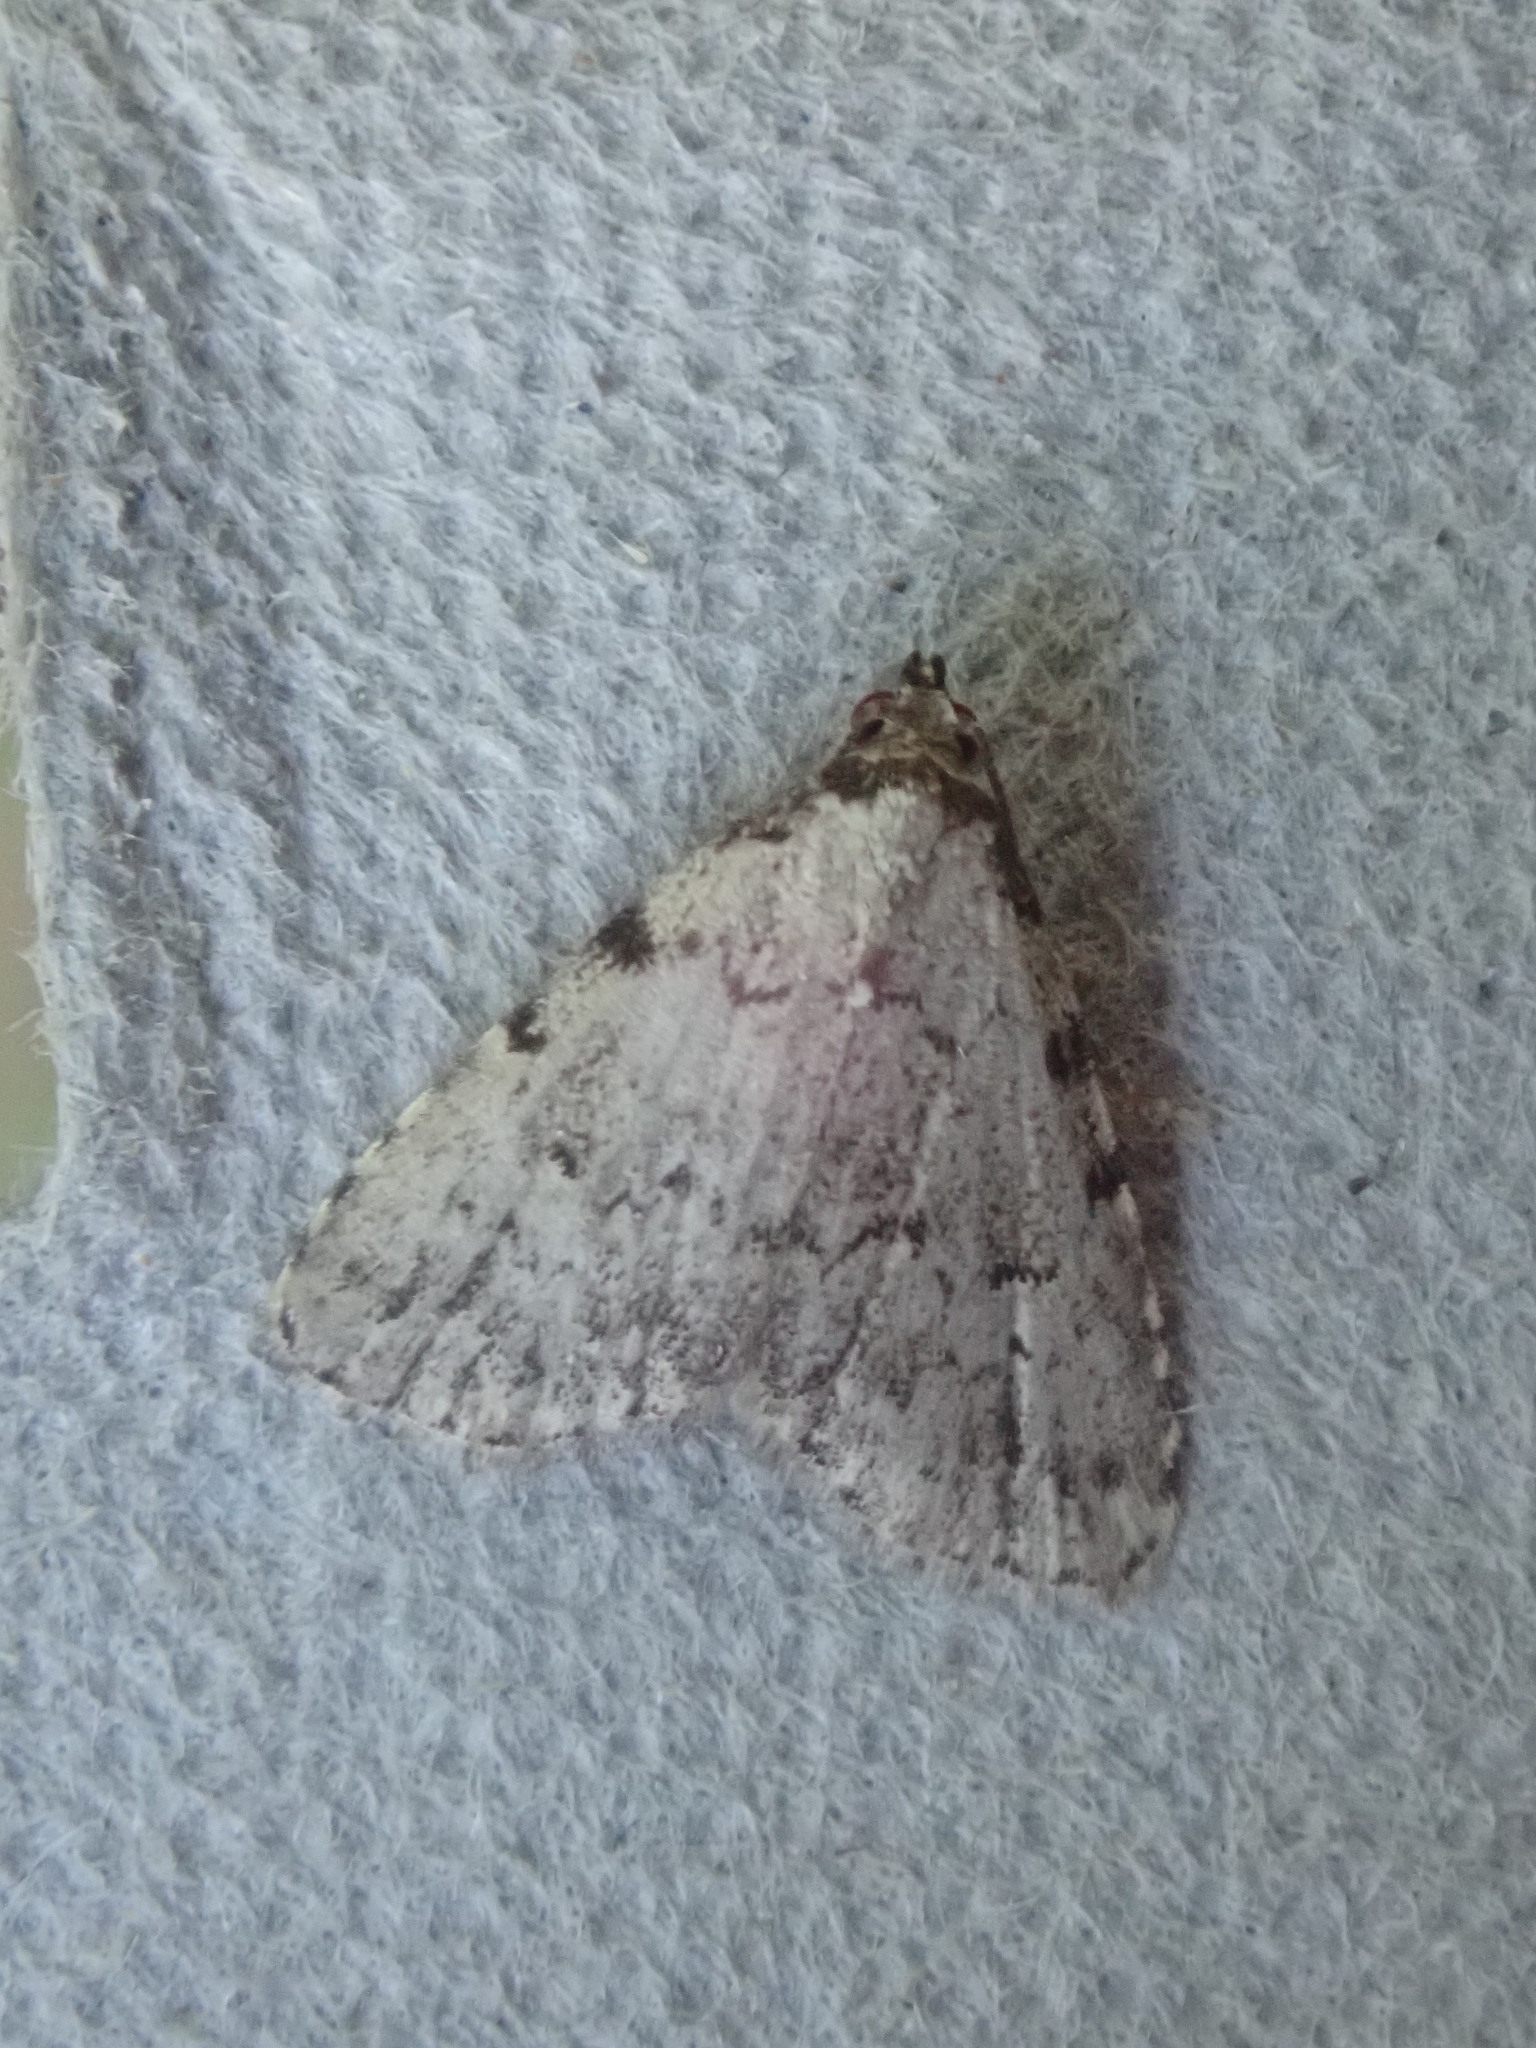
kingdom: Animalia
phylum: Arthropoda
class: Insecta
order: Lepidoptera
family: Erebidae
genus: Dyspyralis
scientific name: Dyspyralis puncticosta
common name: Spot-edged dyspyralis moth
